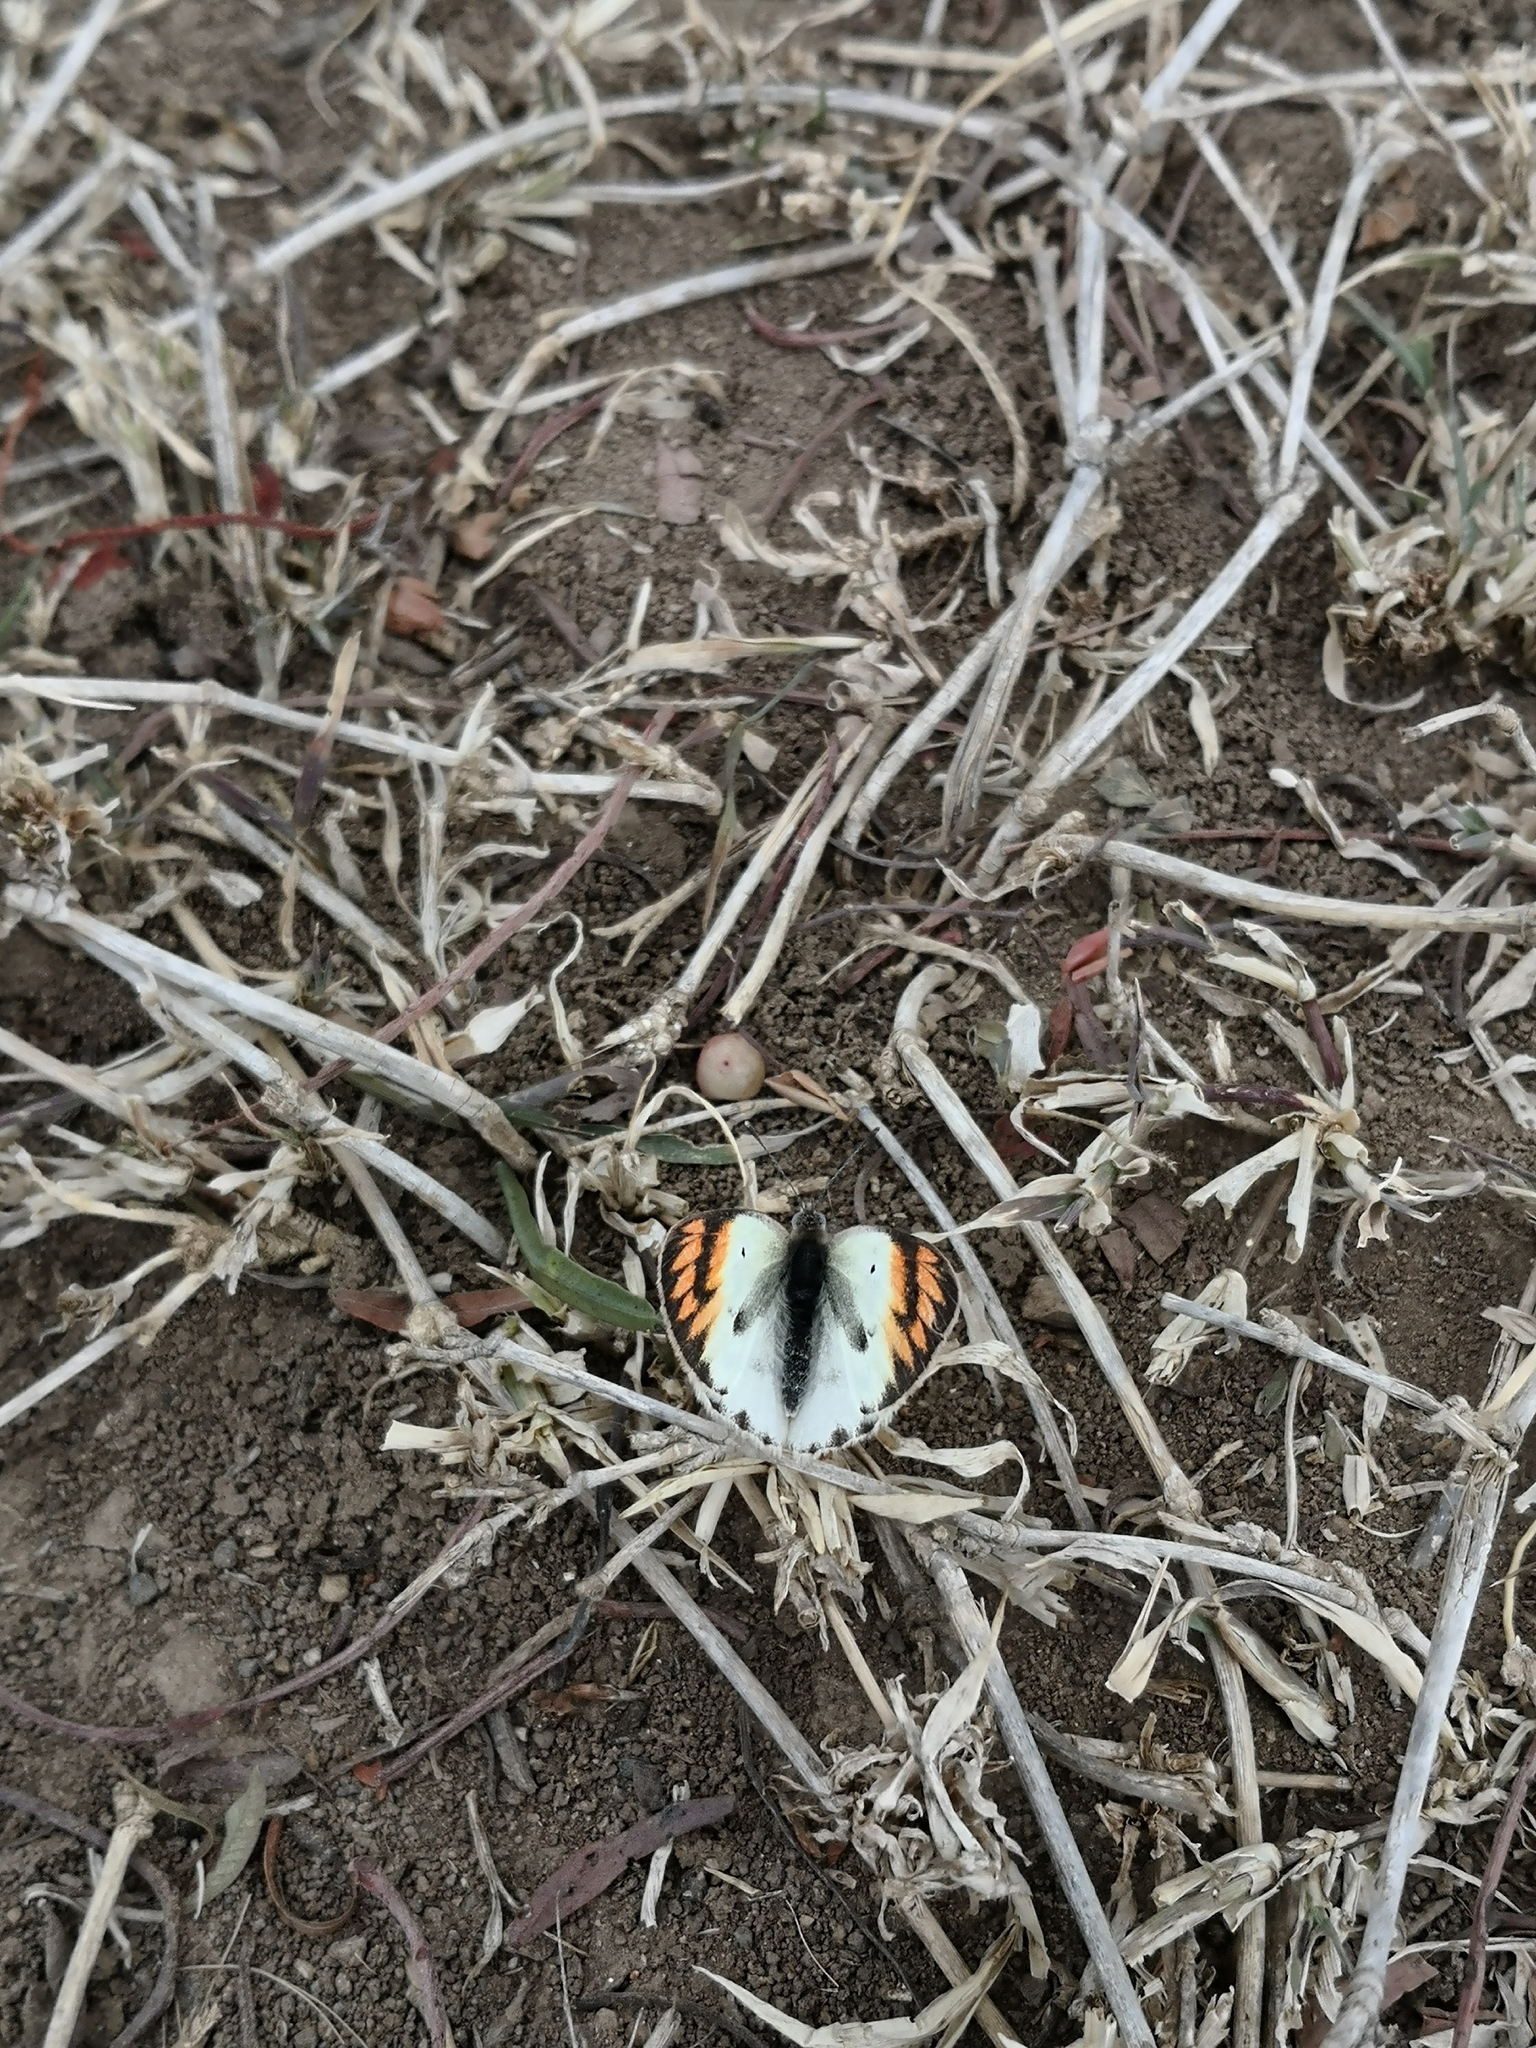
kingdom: Animalia
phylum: Arthropoda
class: Insecta
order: Lepidoptera
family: Pieridae
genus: Colotis
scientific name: Colotis antevippe
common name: Large orange tip
